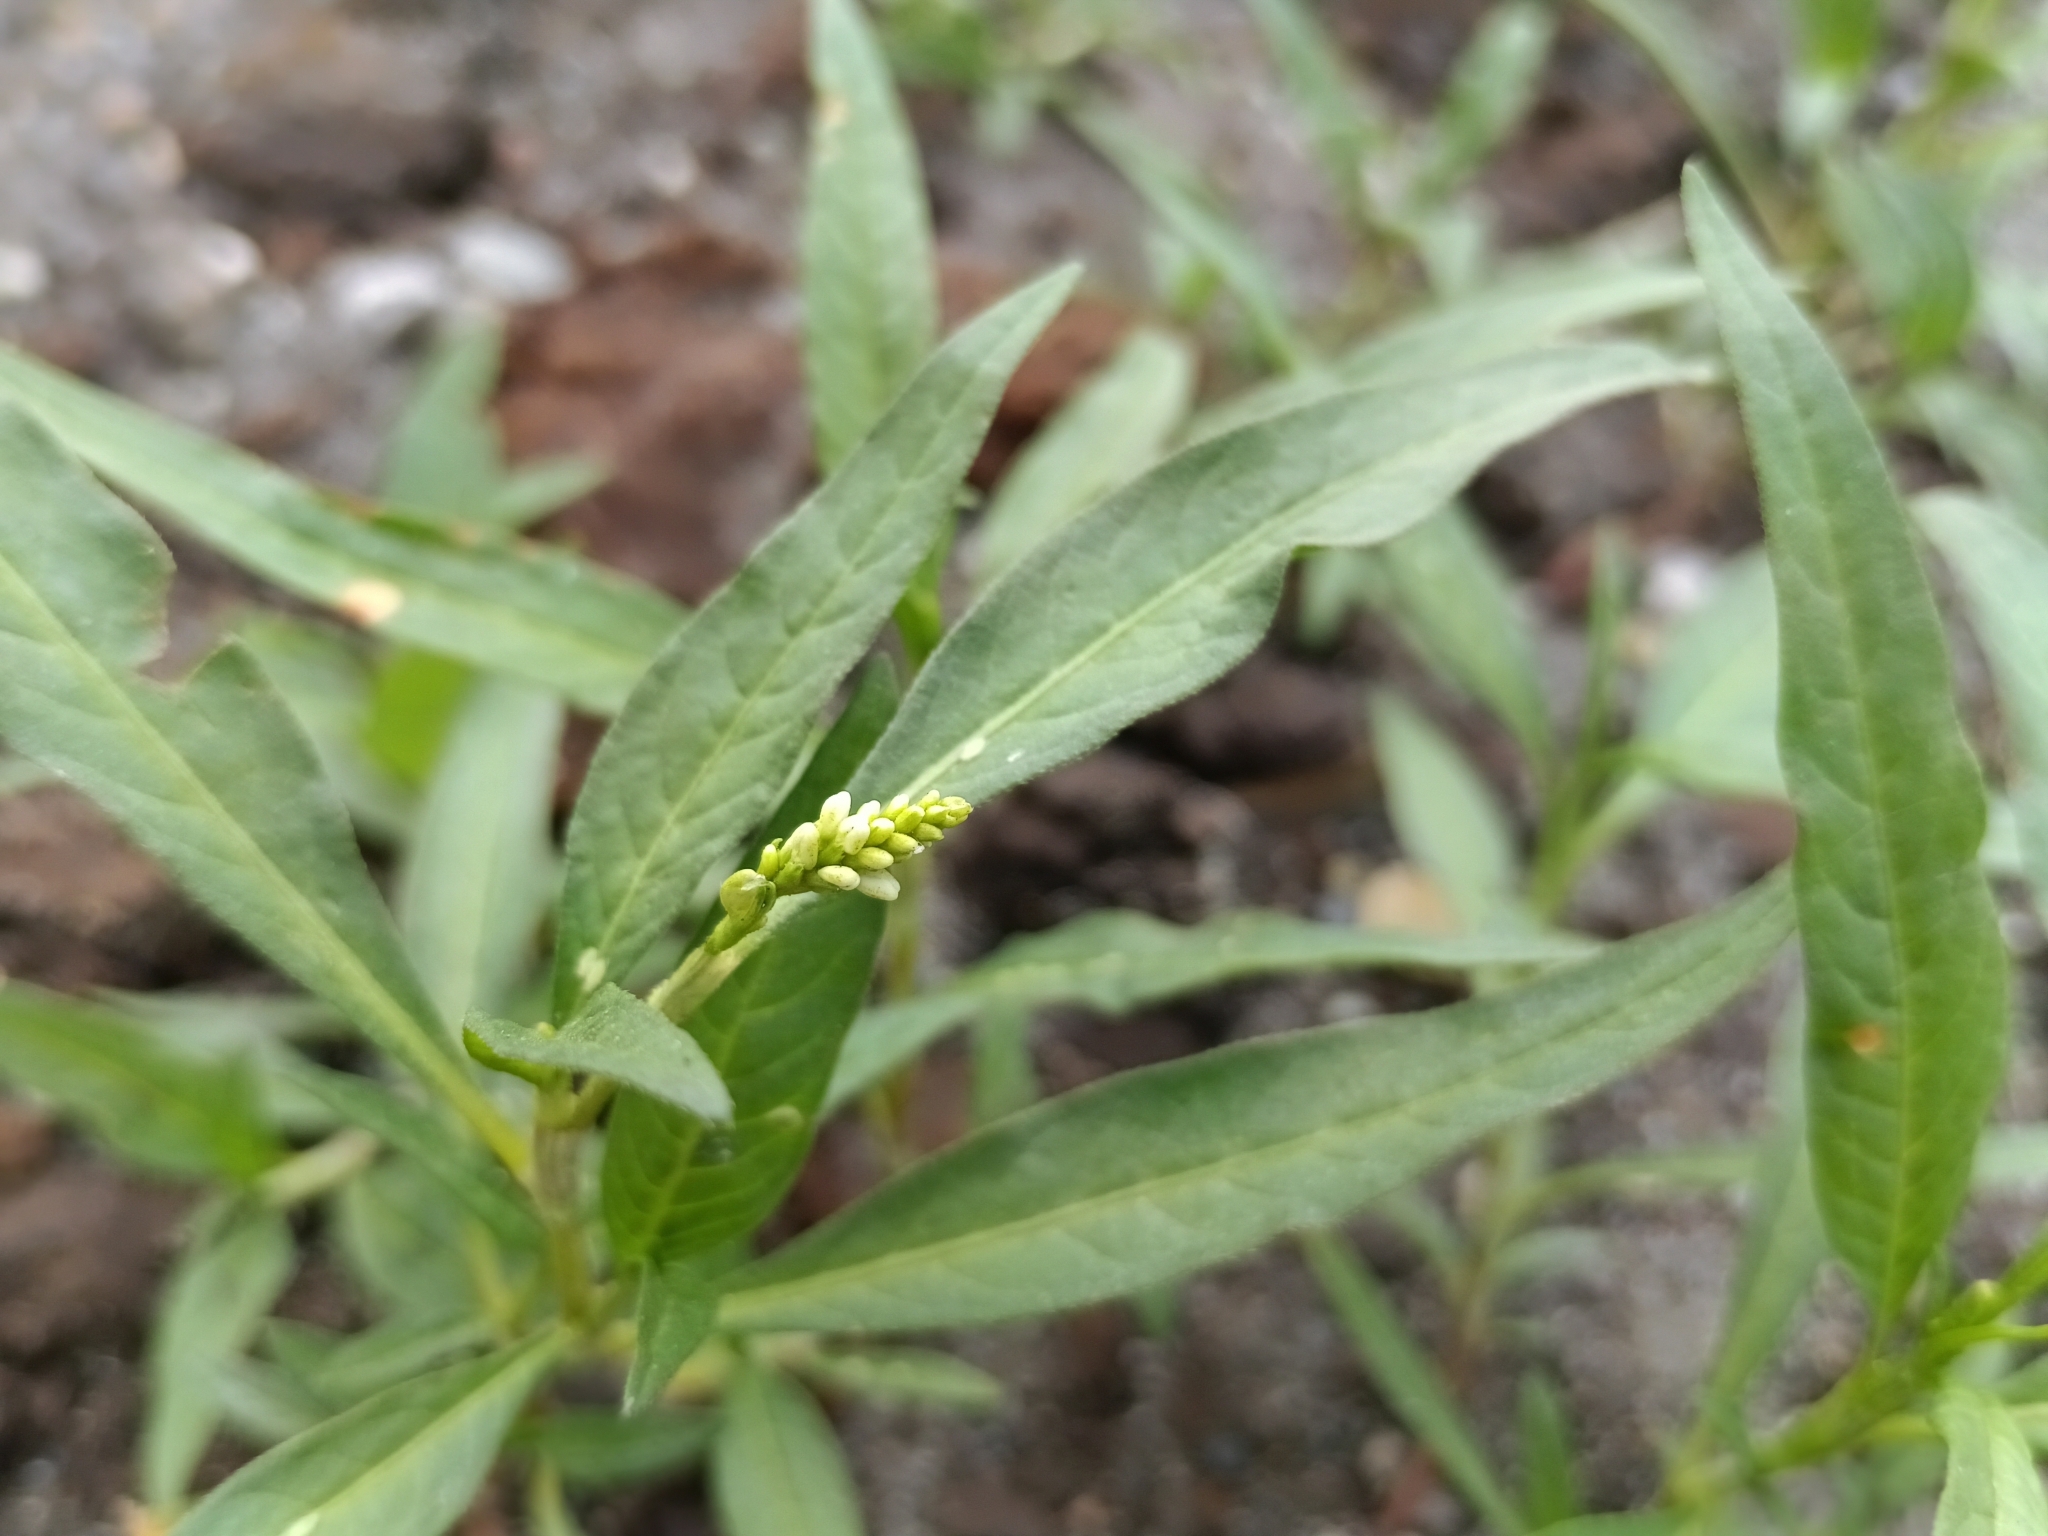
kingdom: Plantae
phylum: Tracheophyta
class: Magnoliopsida
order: Caryophyllales
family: Polygonaceae
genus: Persicaria
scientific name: Persicaria lapathifolia
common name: Curlytop knotweed
